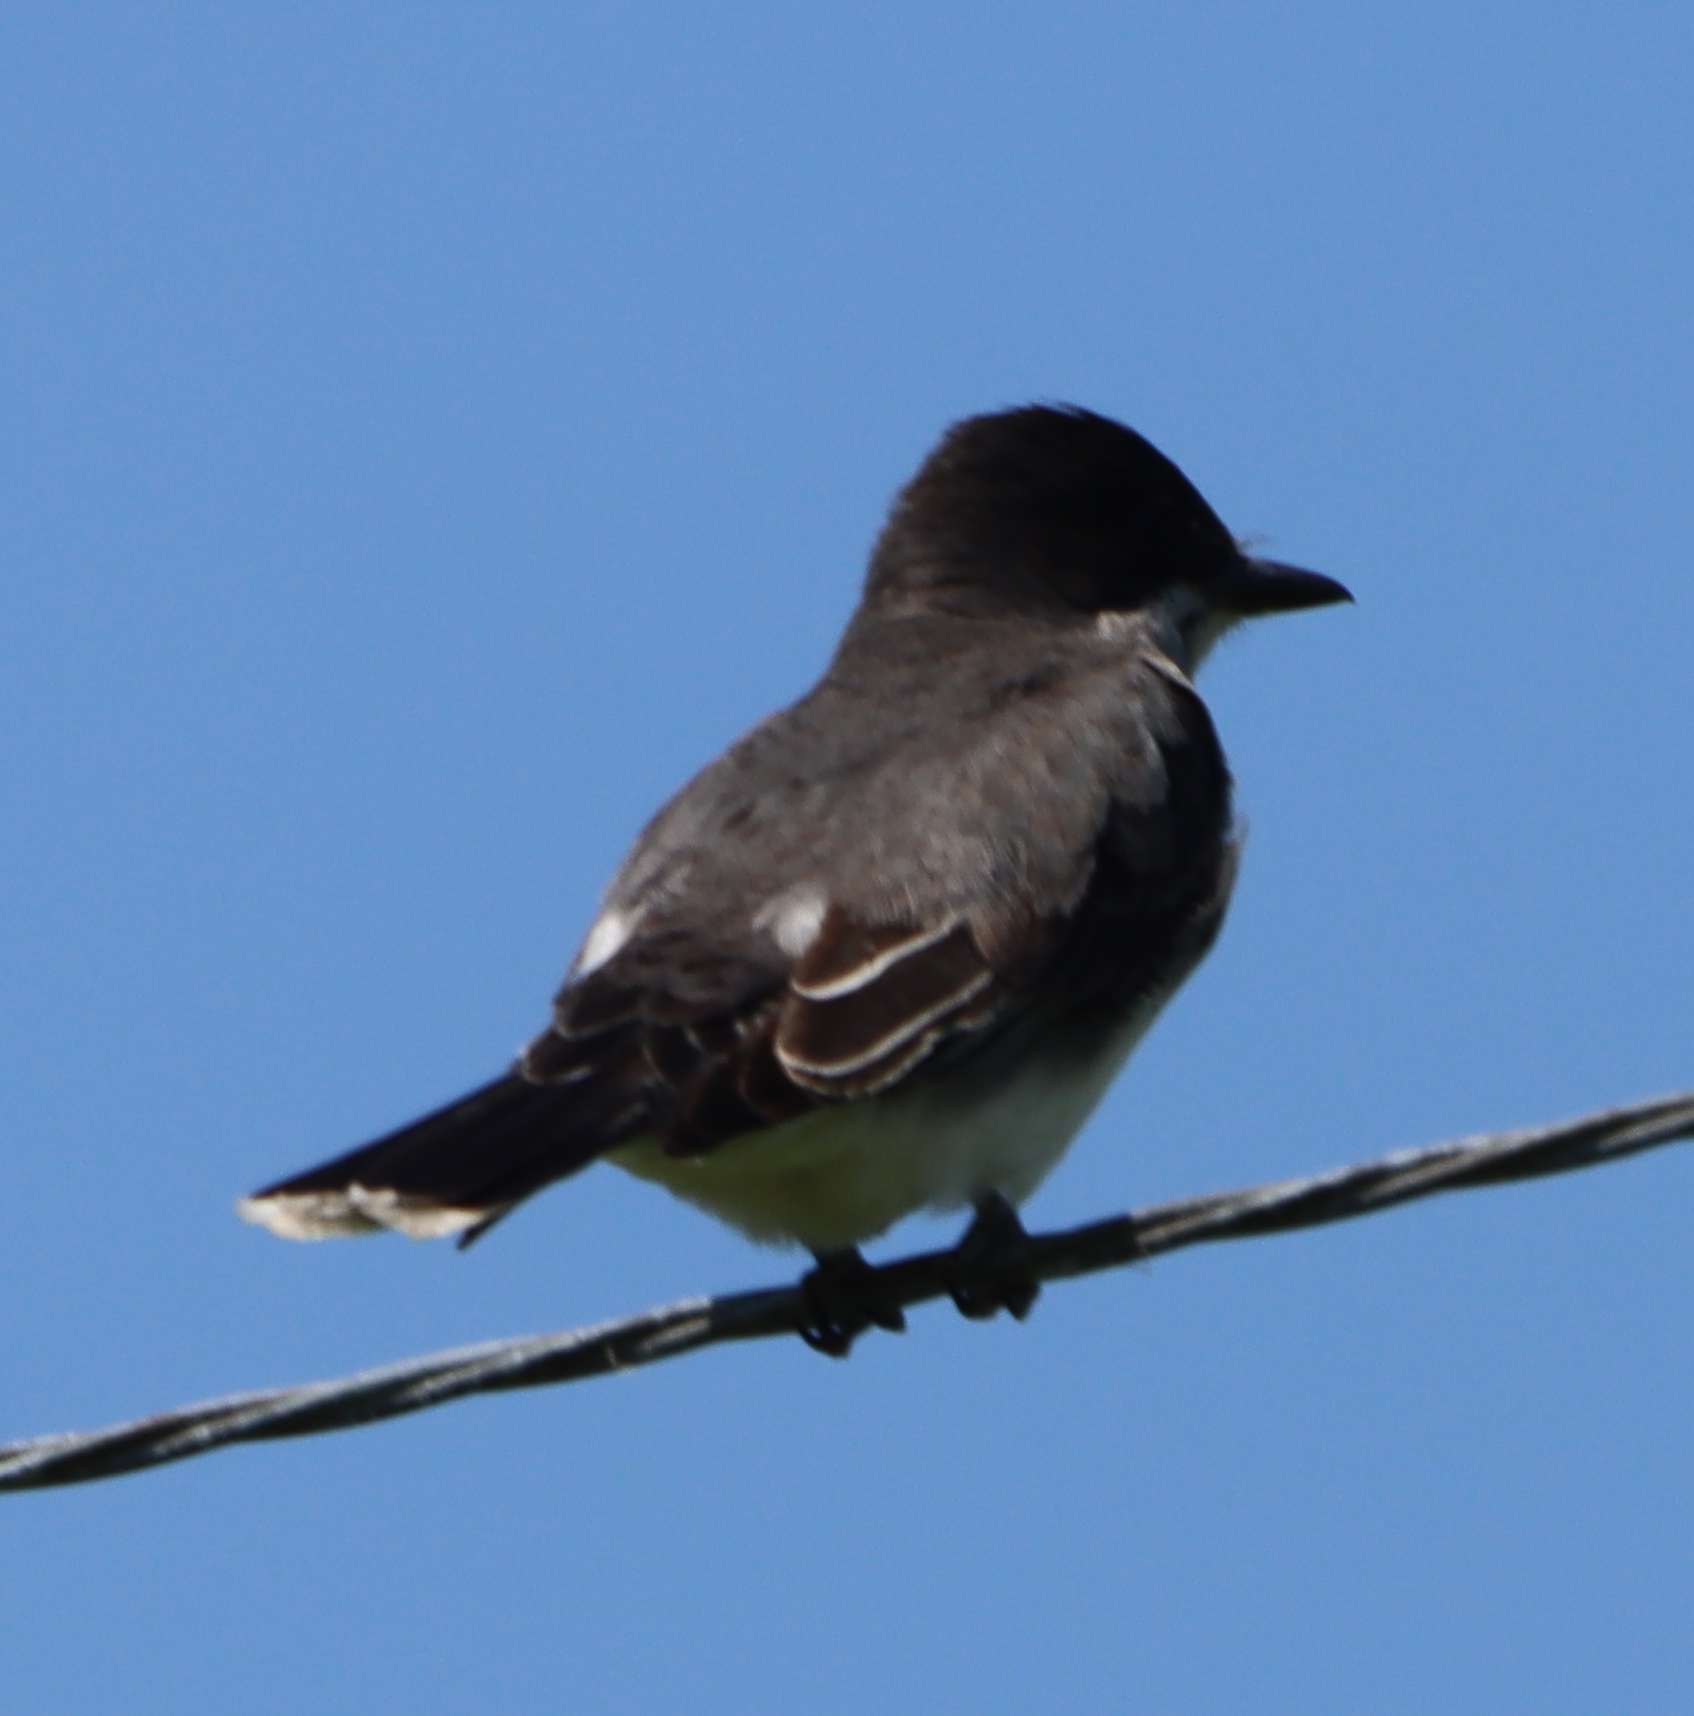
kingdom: Animalia
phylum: Chordata
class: Aves
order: Passeriformes
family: Tyrannidae
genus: Tyrannus
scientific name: Tyrannus tyrannus
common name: Eastern kingbird
